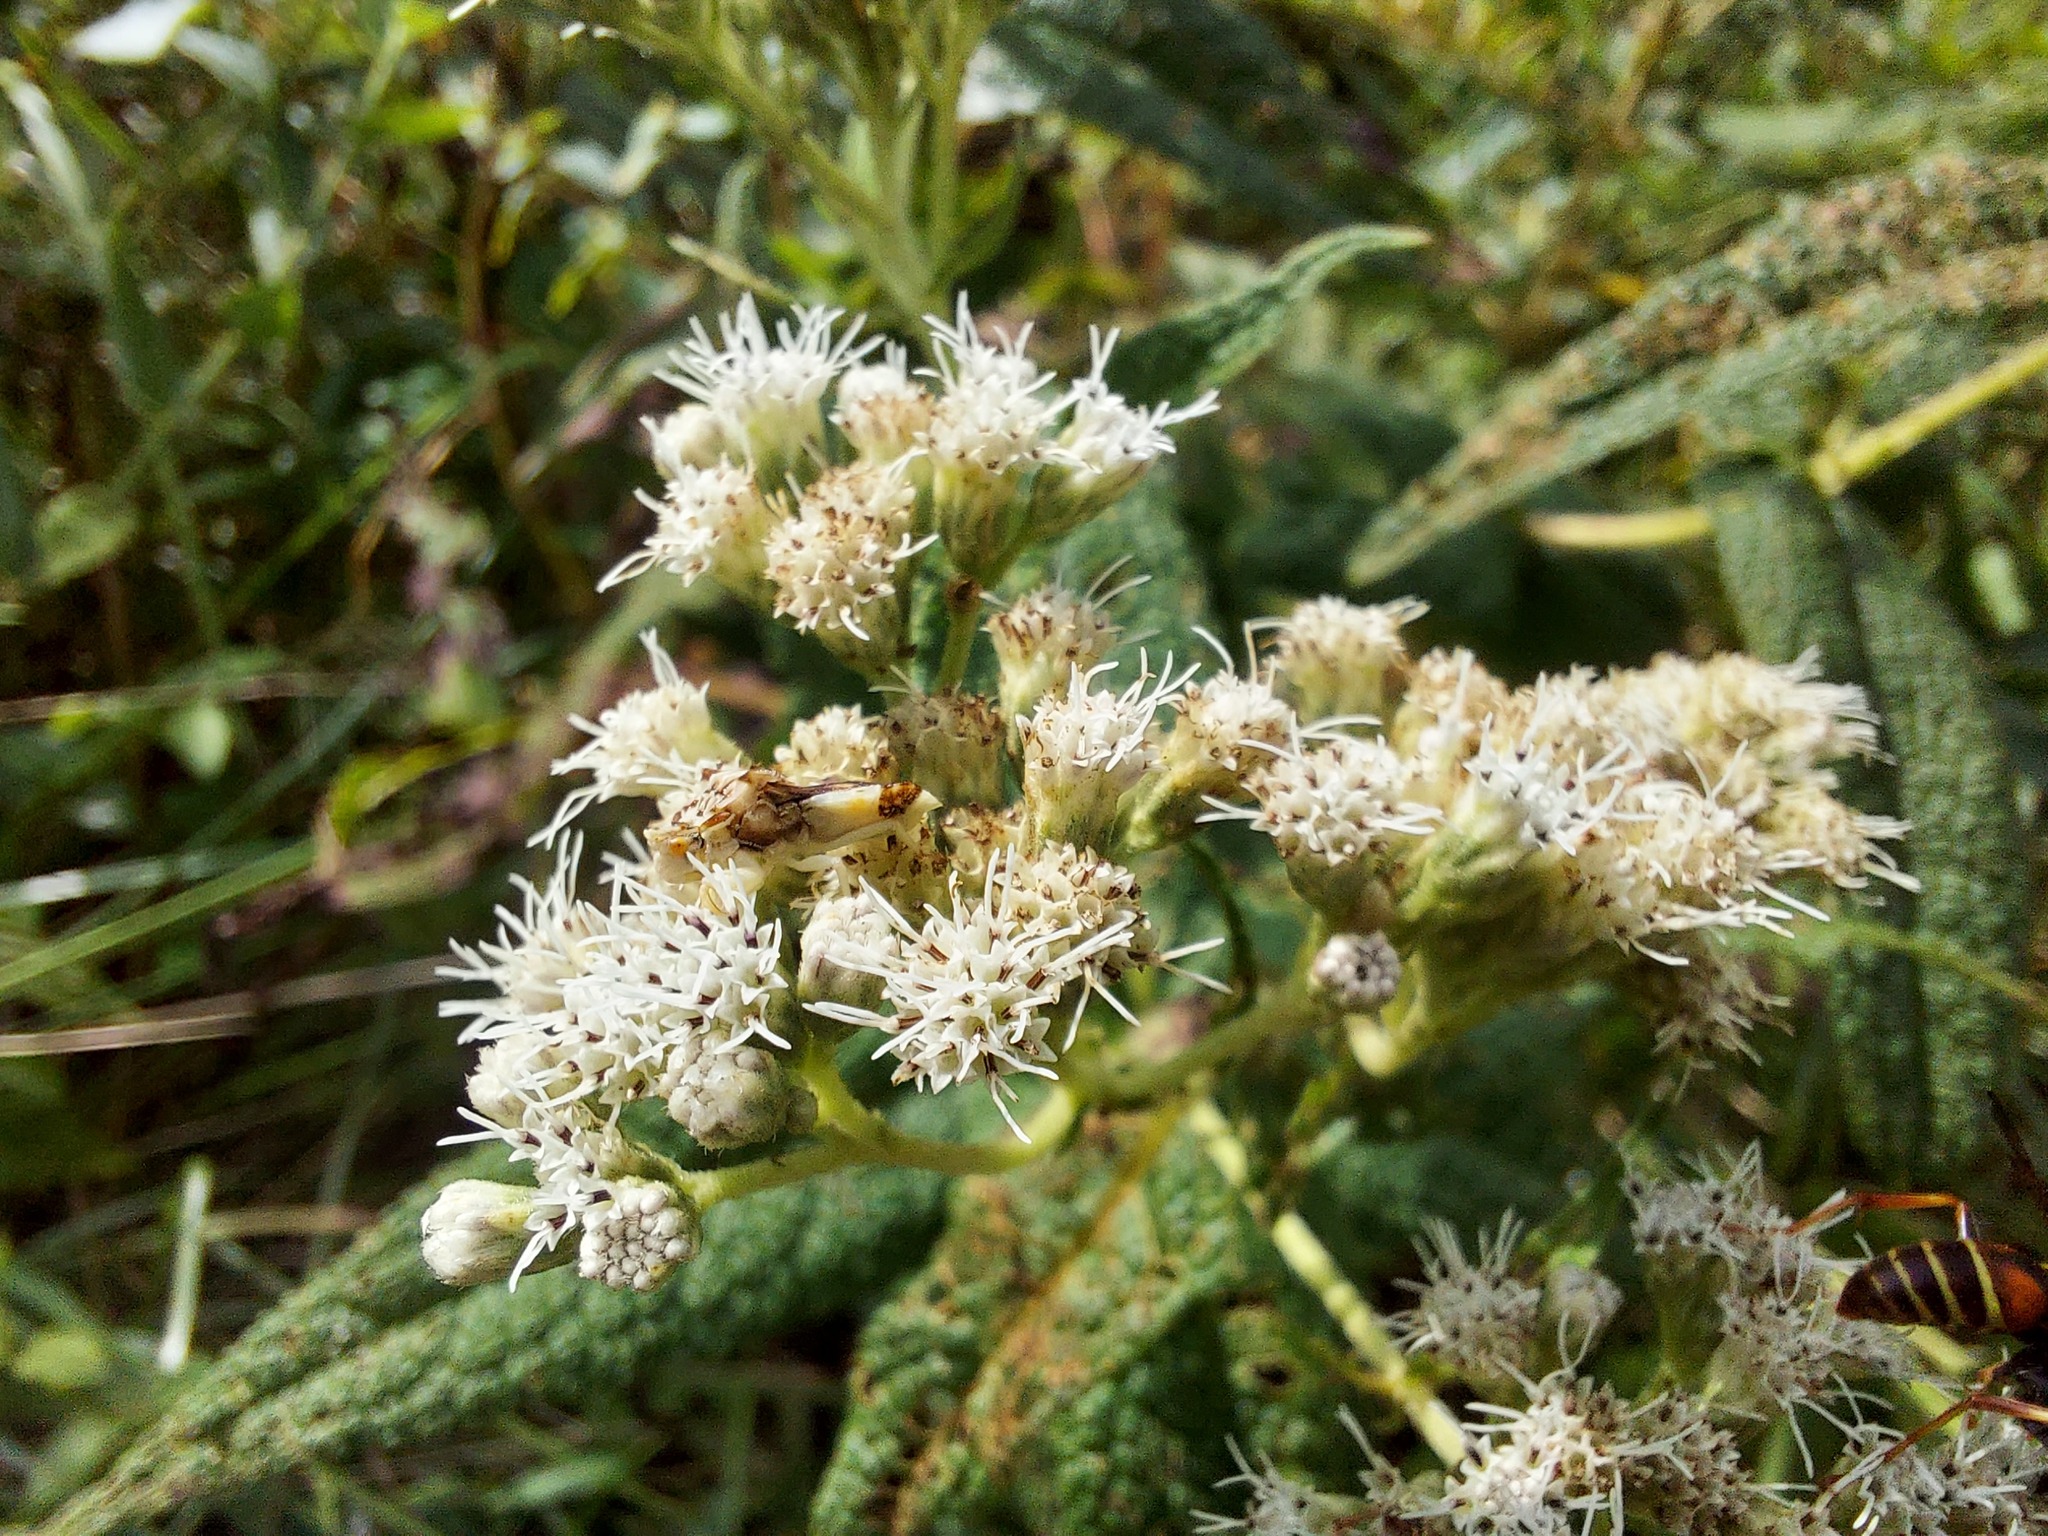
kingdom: Plantae
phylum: Tracheophyta
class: Magnoliopsida
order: Asterales
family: Asteraceae
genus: Eupatorium
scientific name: Eupatorium perfoliatum
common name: Boneset
